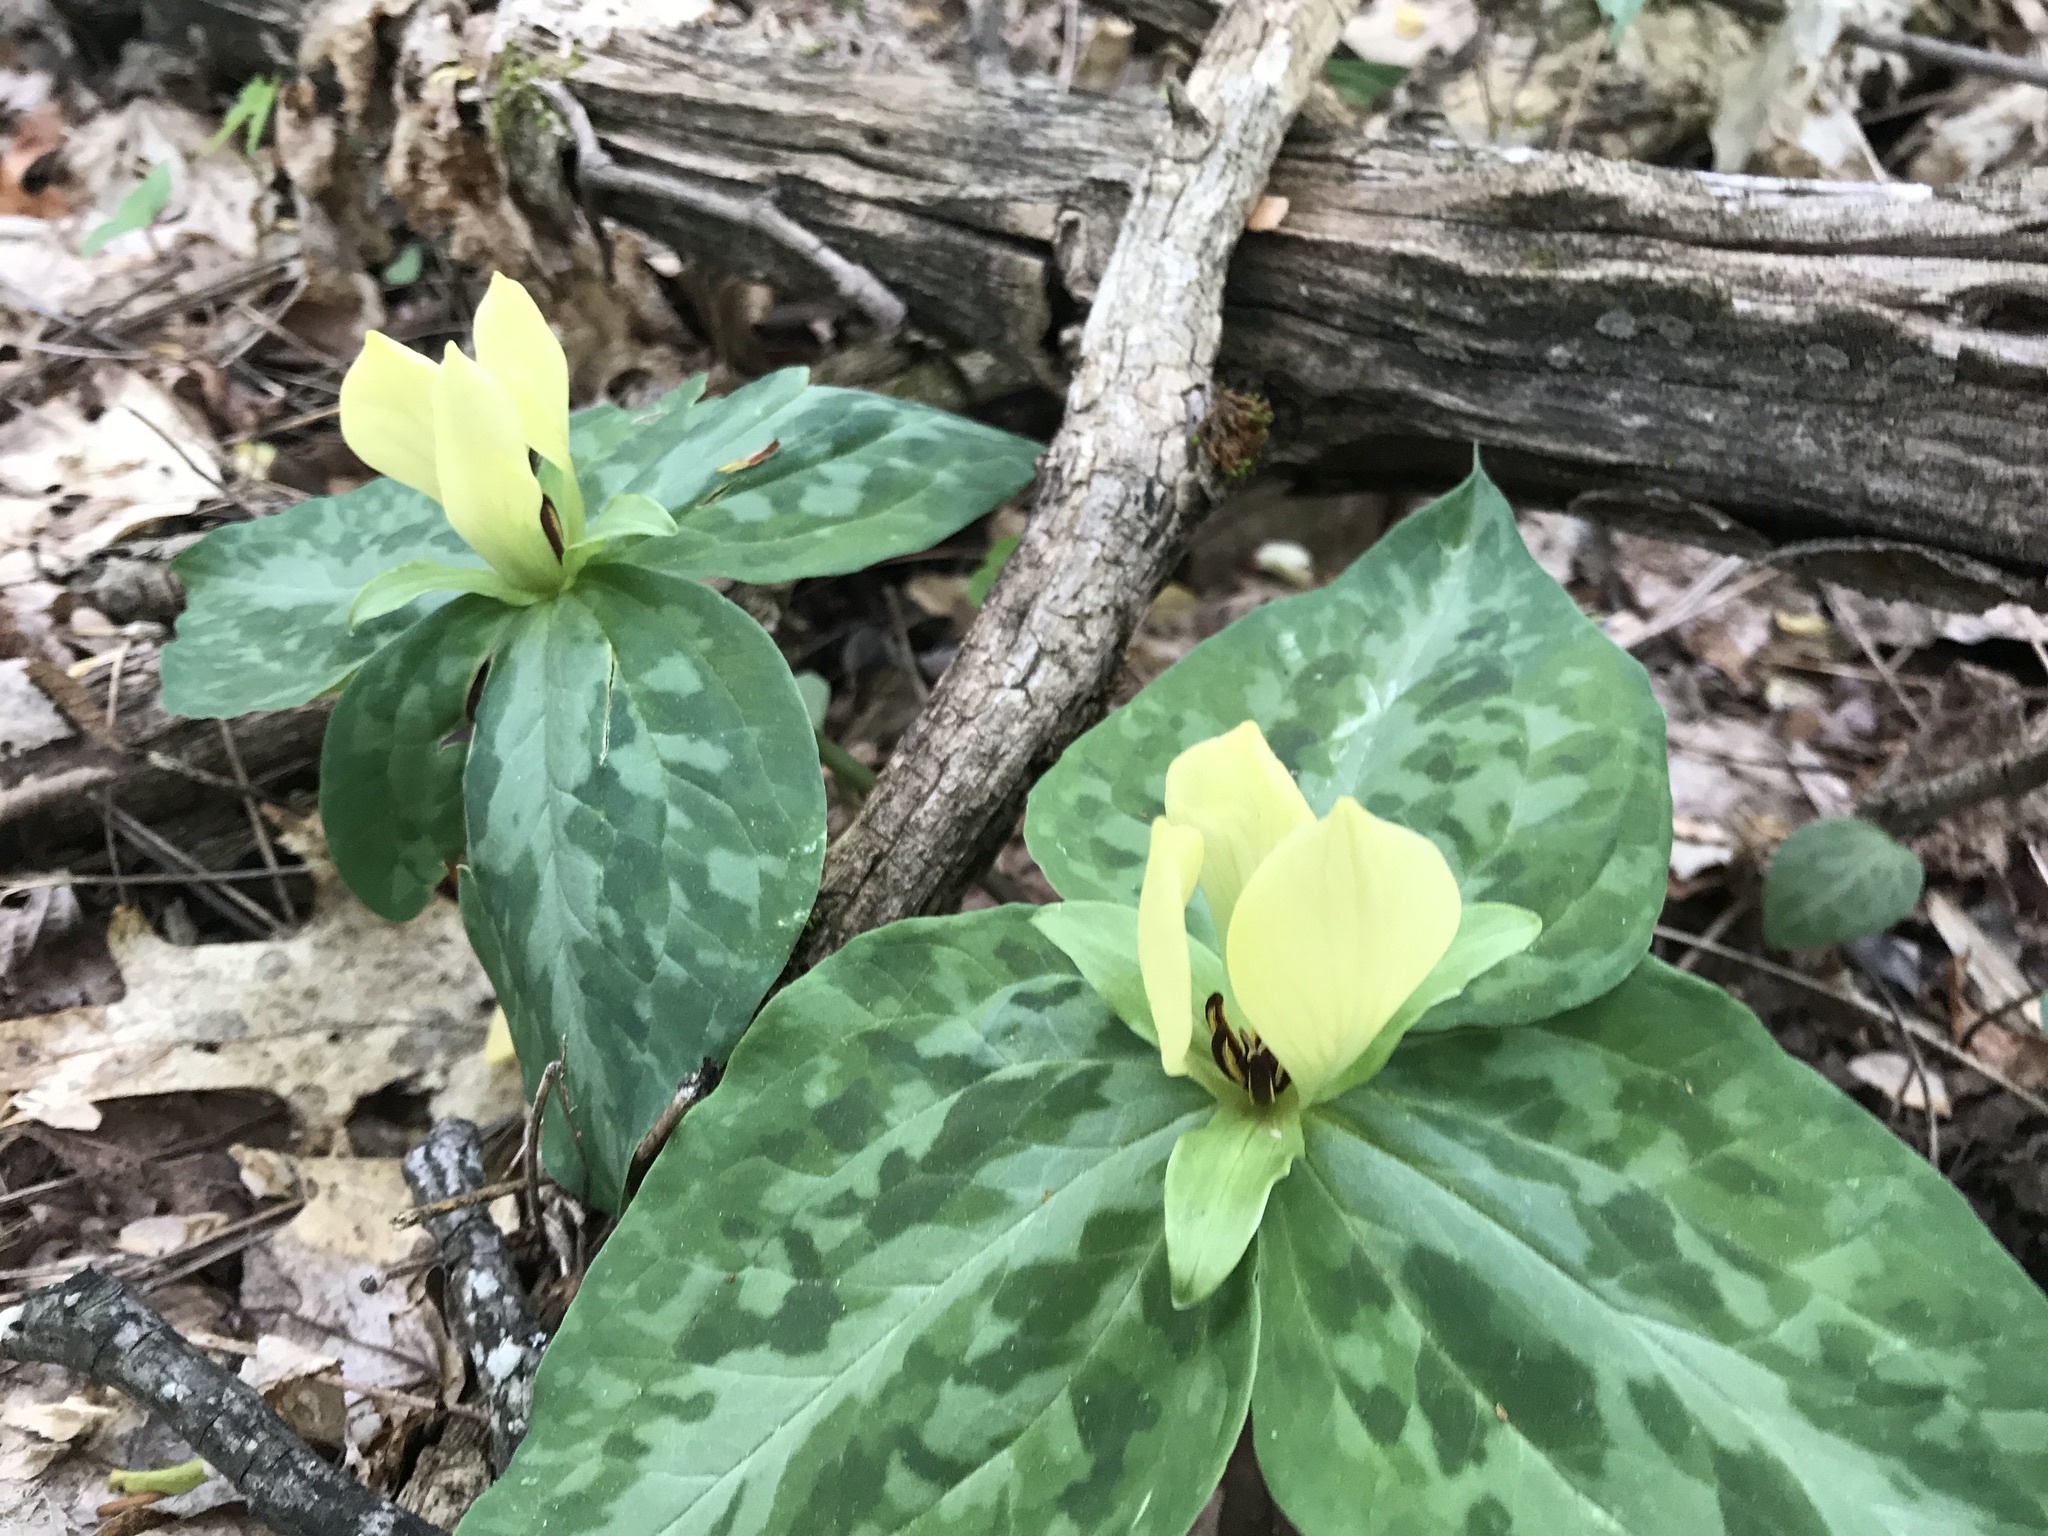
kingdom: Plantae
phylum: Tracheophyta
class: Liliopsida
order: Liliales
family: Melanthiaceae
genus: Trillium
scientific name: Trillium discolor
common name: Faded trillium
